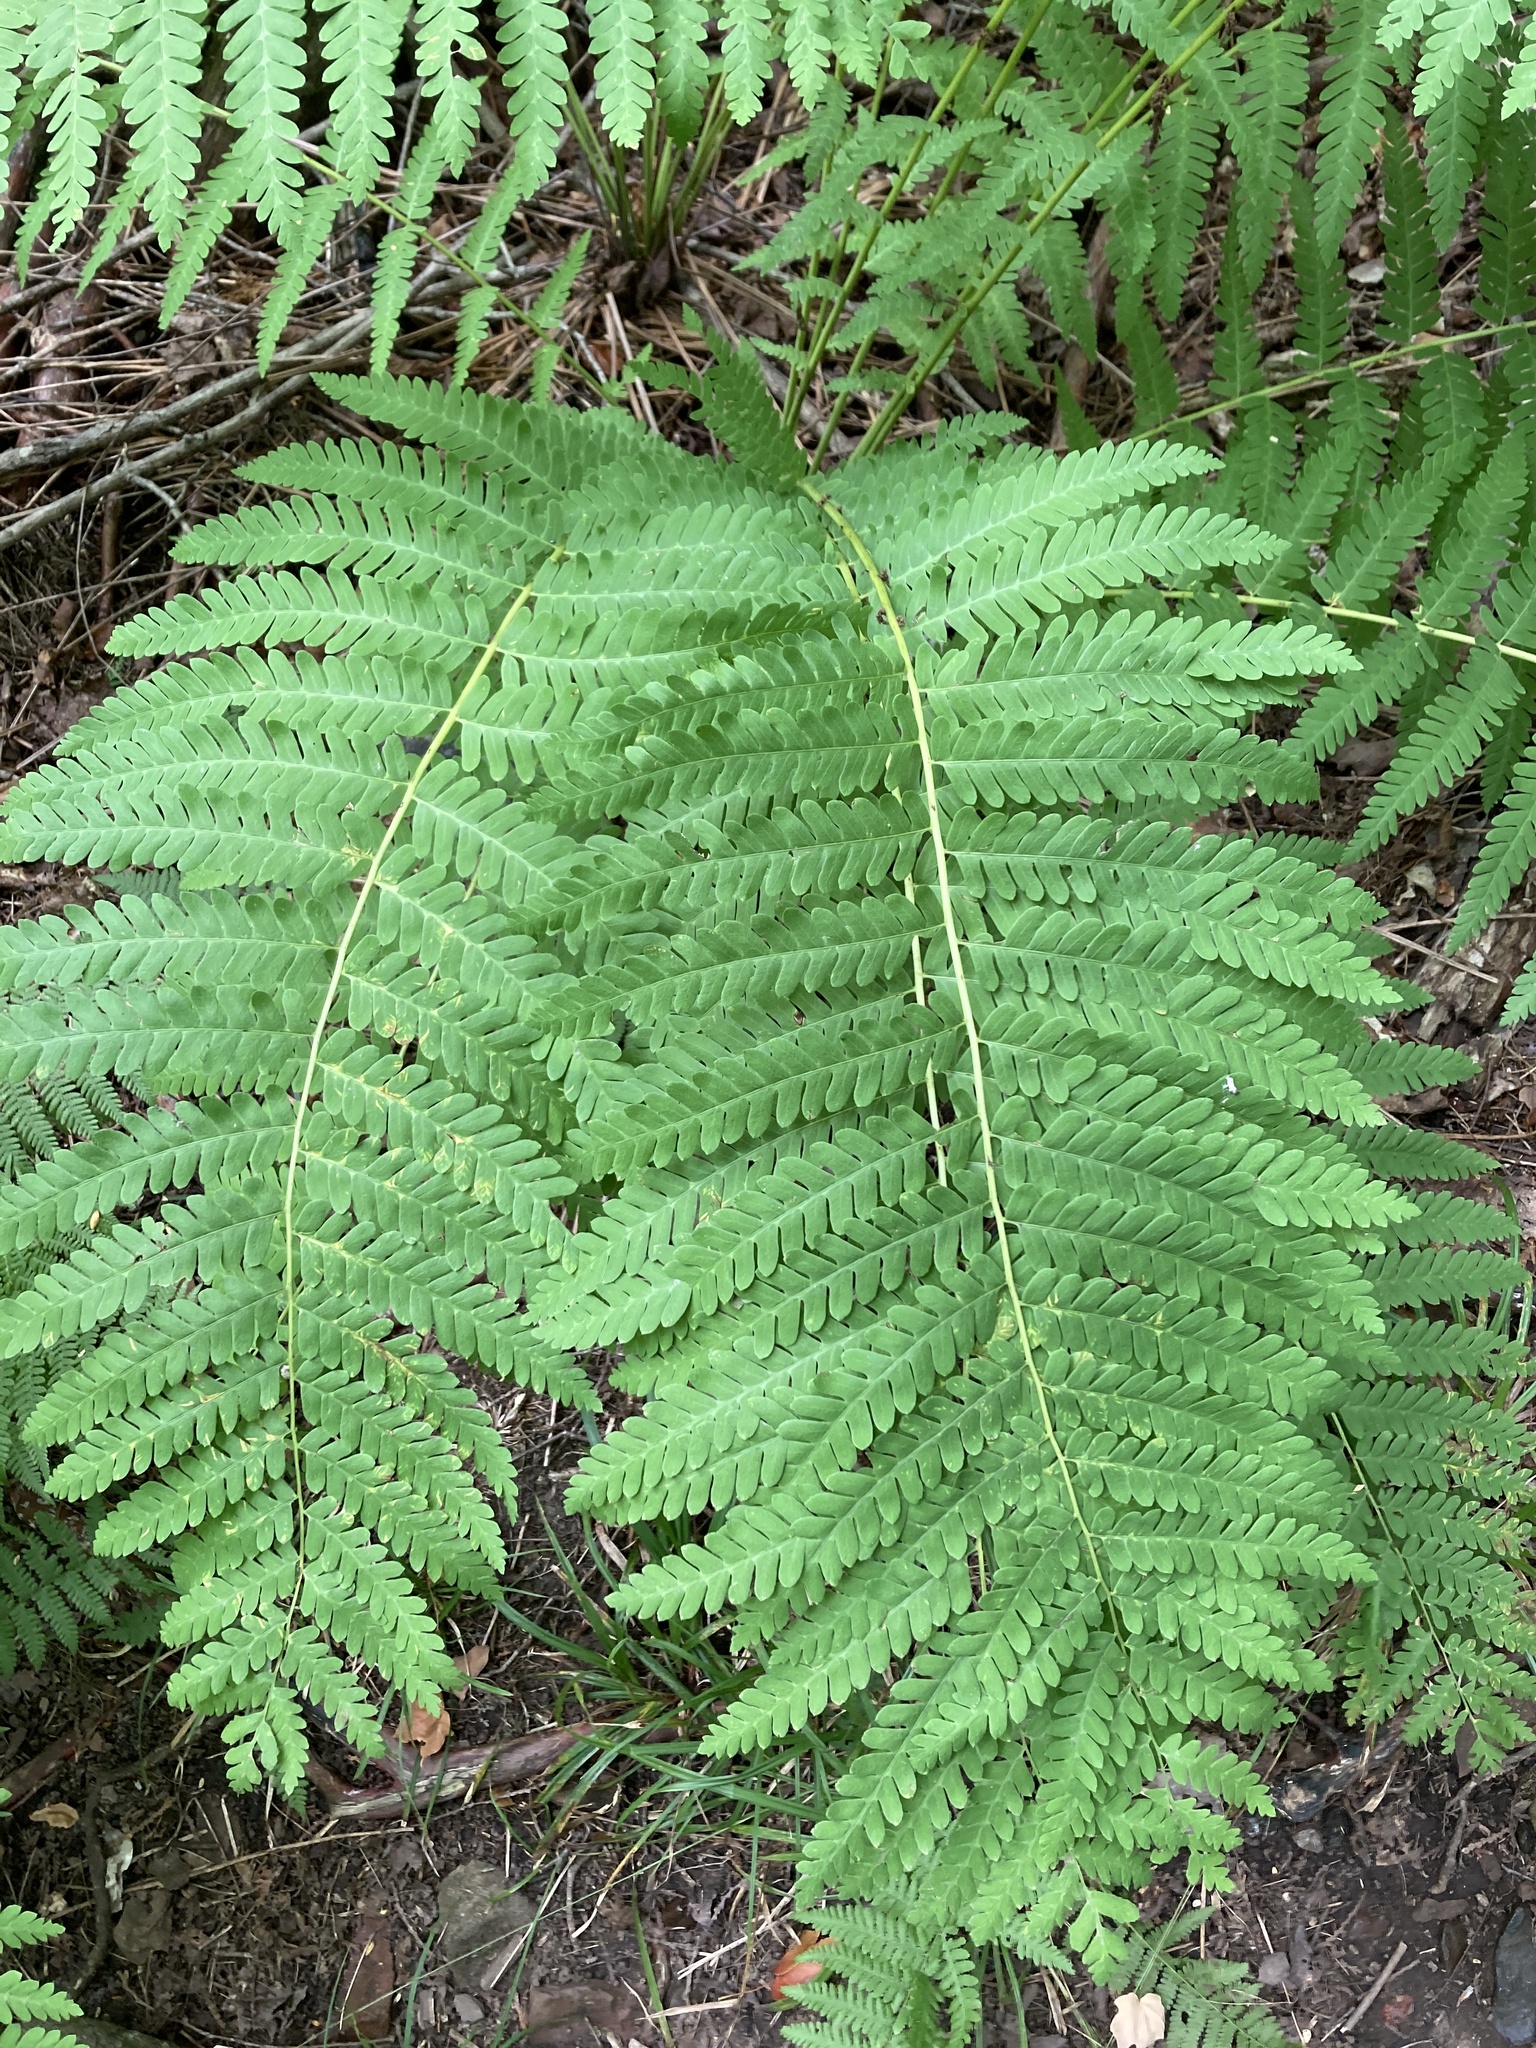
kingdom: Plantae
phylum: Tracheophyta
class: Polypodiopsida
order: Osmundales
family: Osmundaceae
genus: Claytosmunda
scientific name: Claytosmunda claytoniana
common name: Clayton's fern
